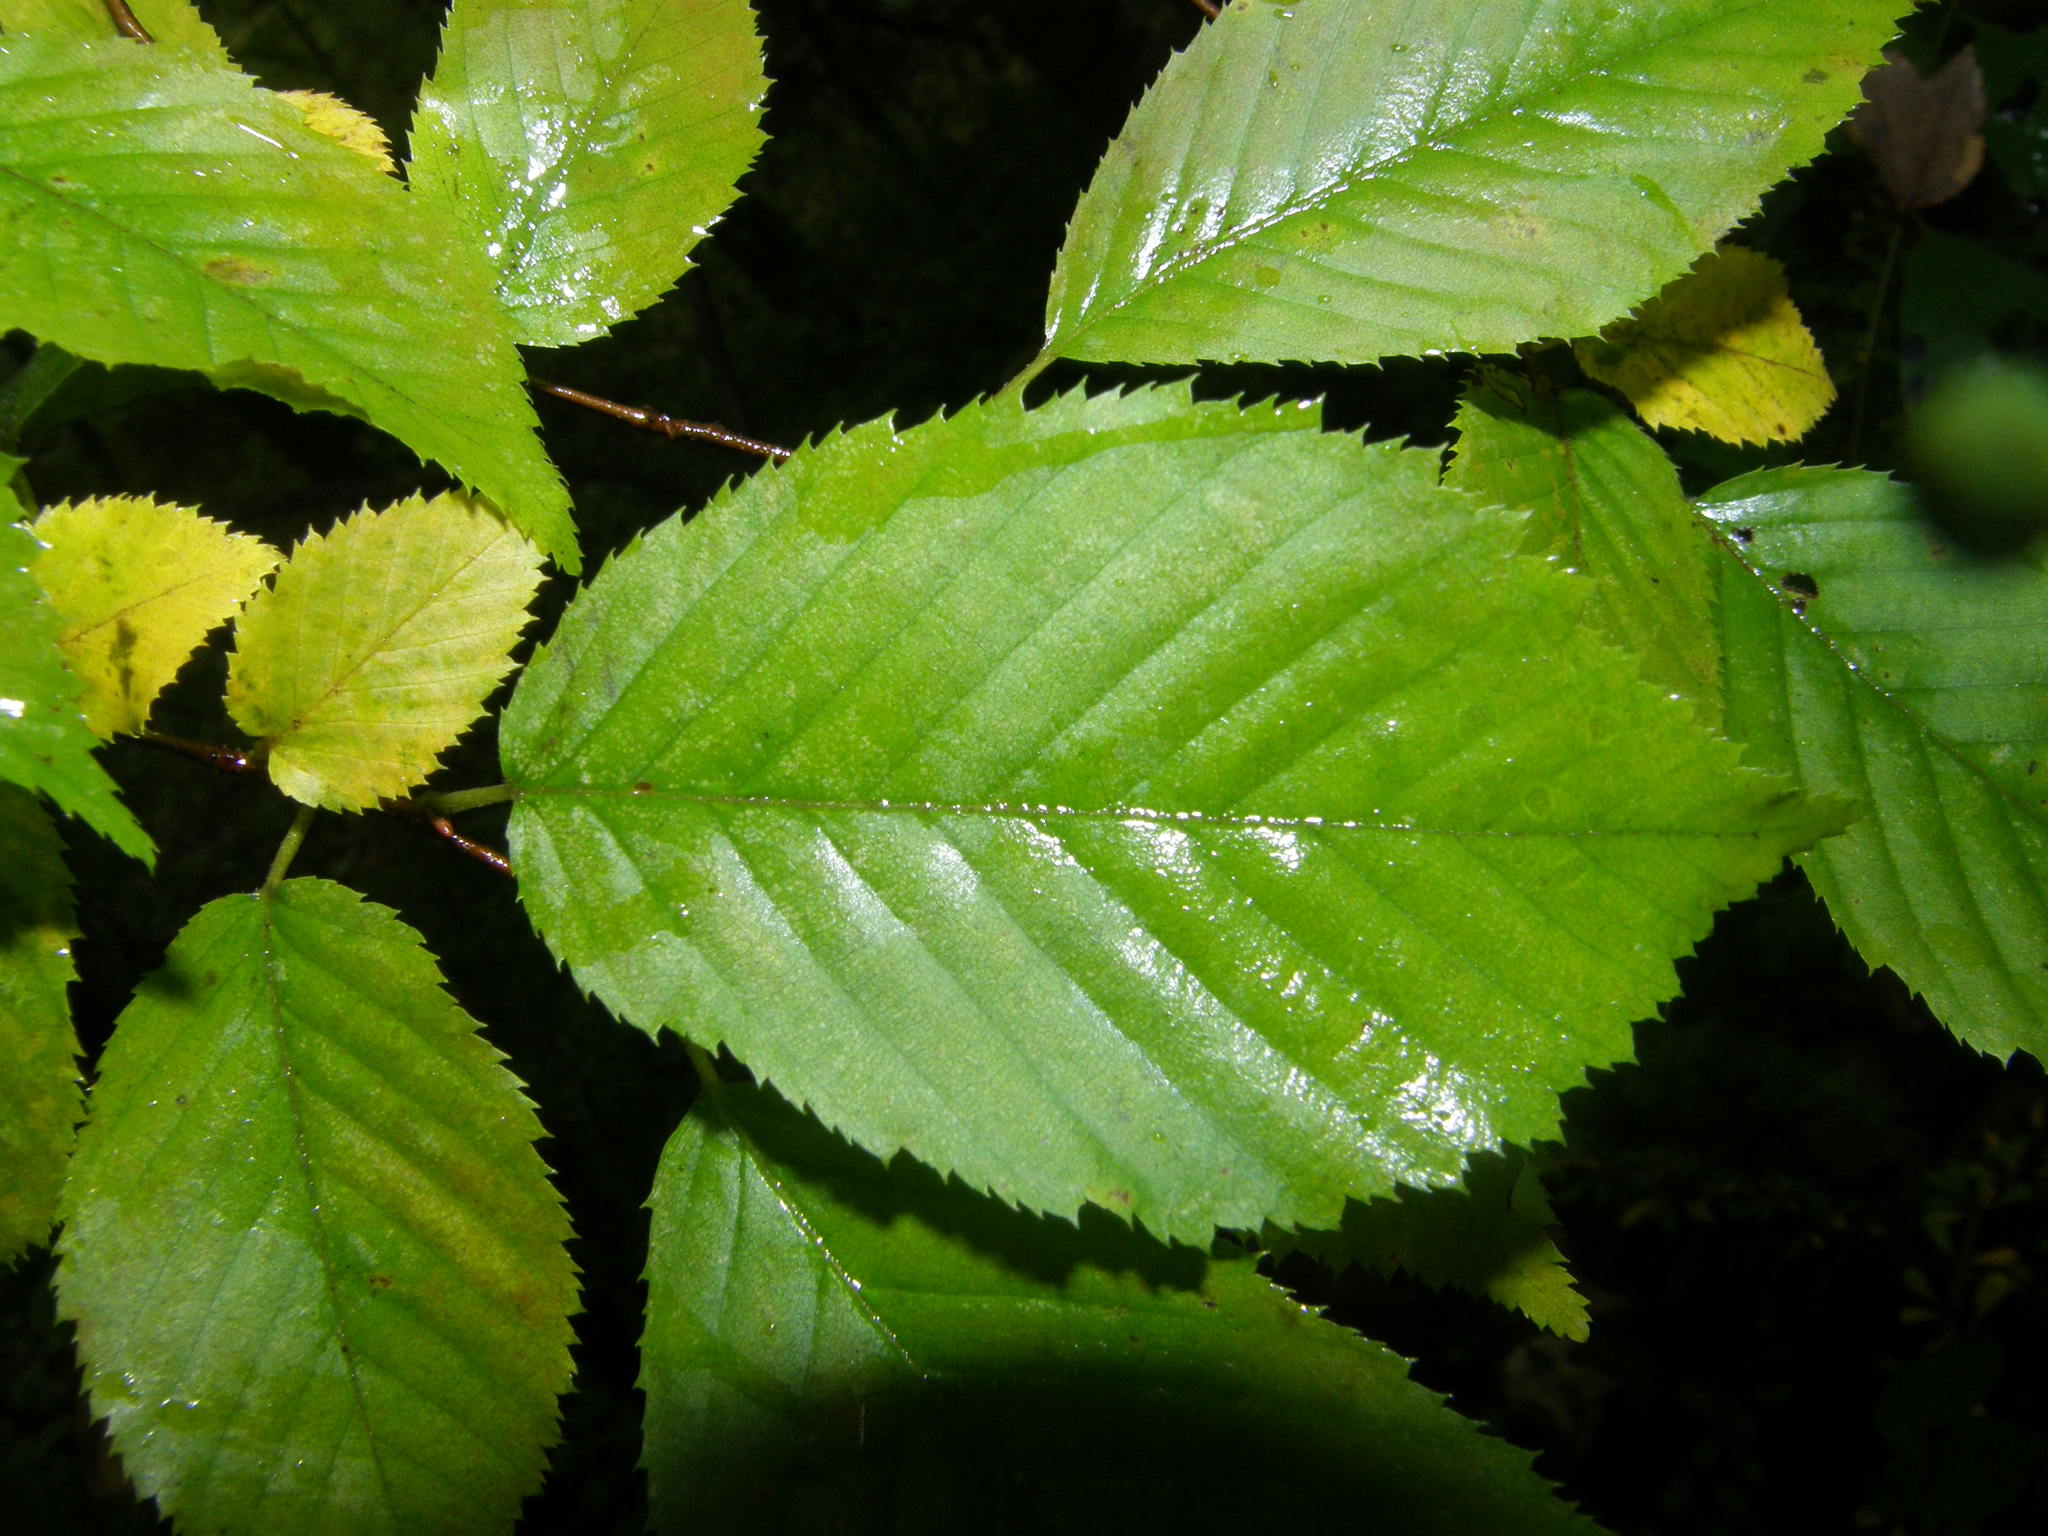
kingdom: Plantae
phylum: Tracheophyta
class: Magnoliopsida
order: Fagales
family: Betulaceae
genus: Carpinus
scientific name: Carpinus caroliniana
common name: American hornbeam
